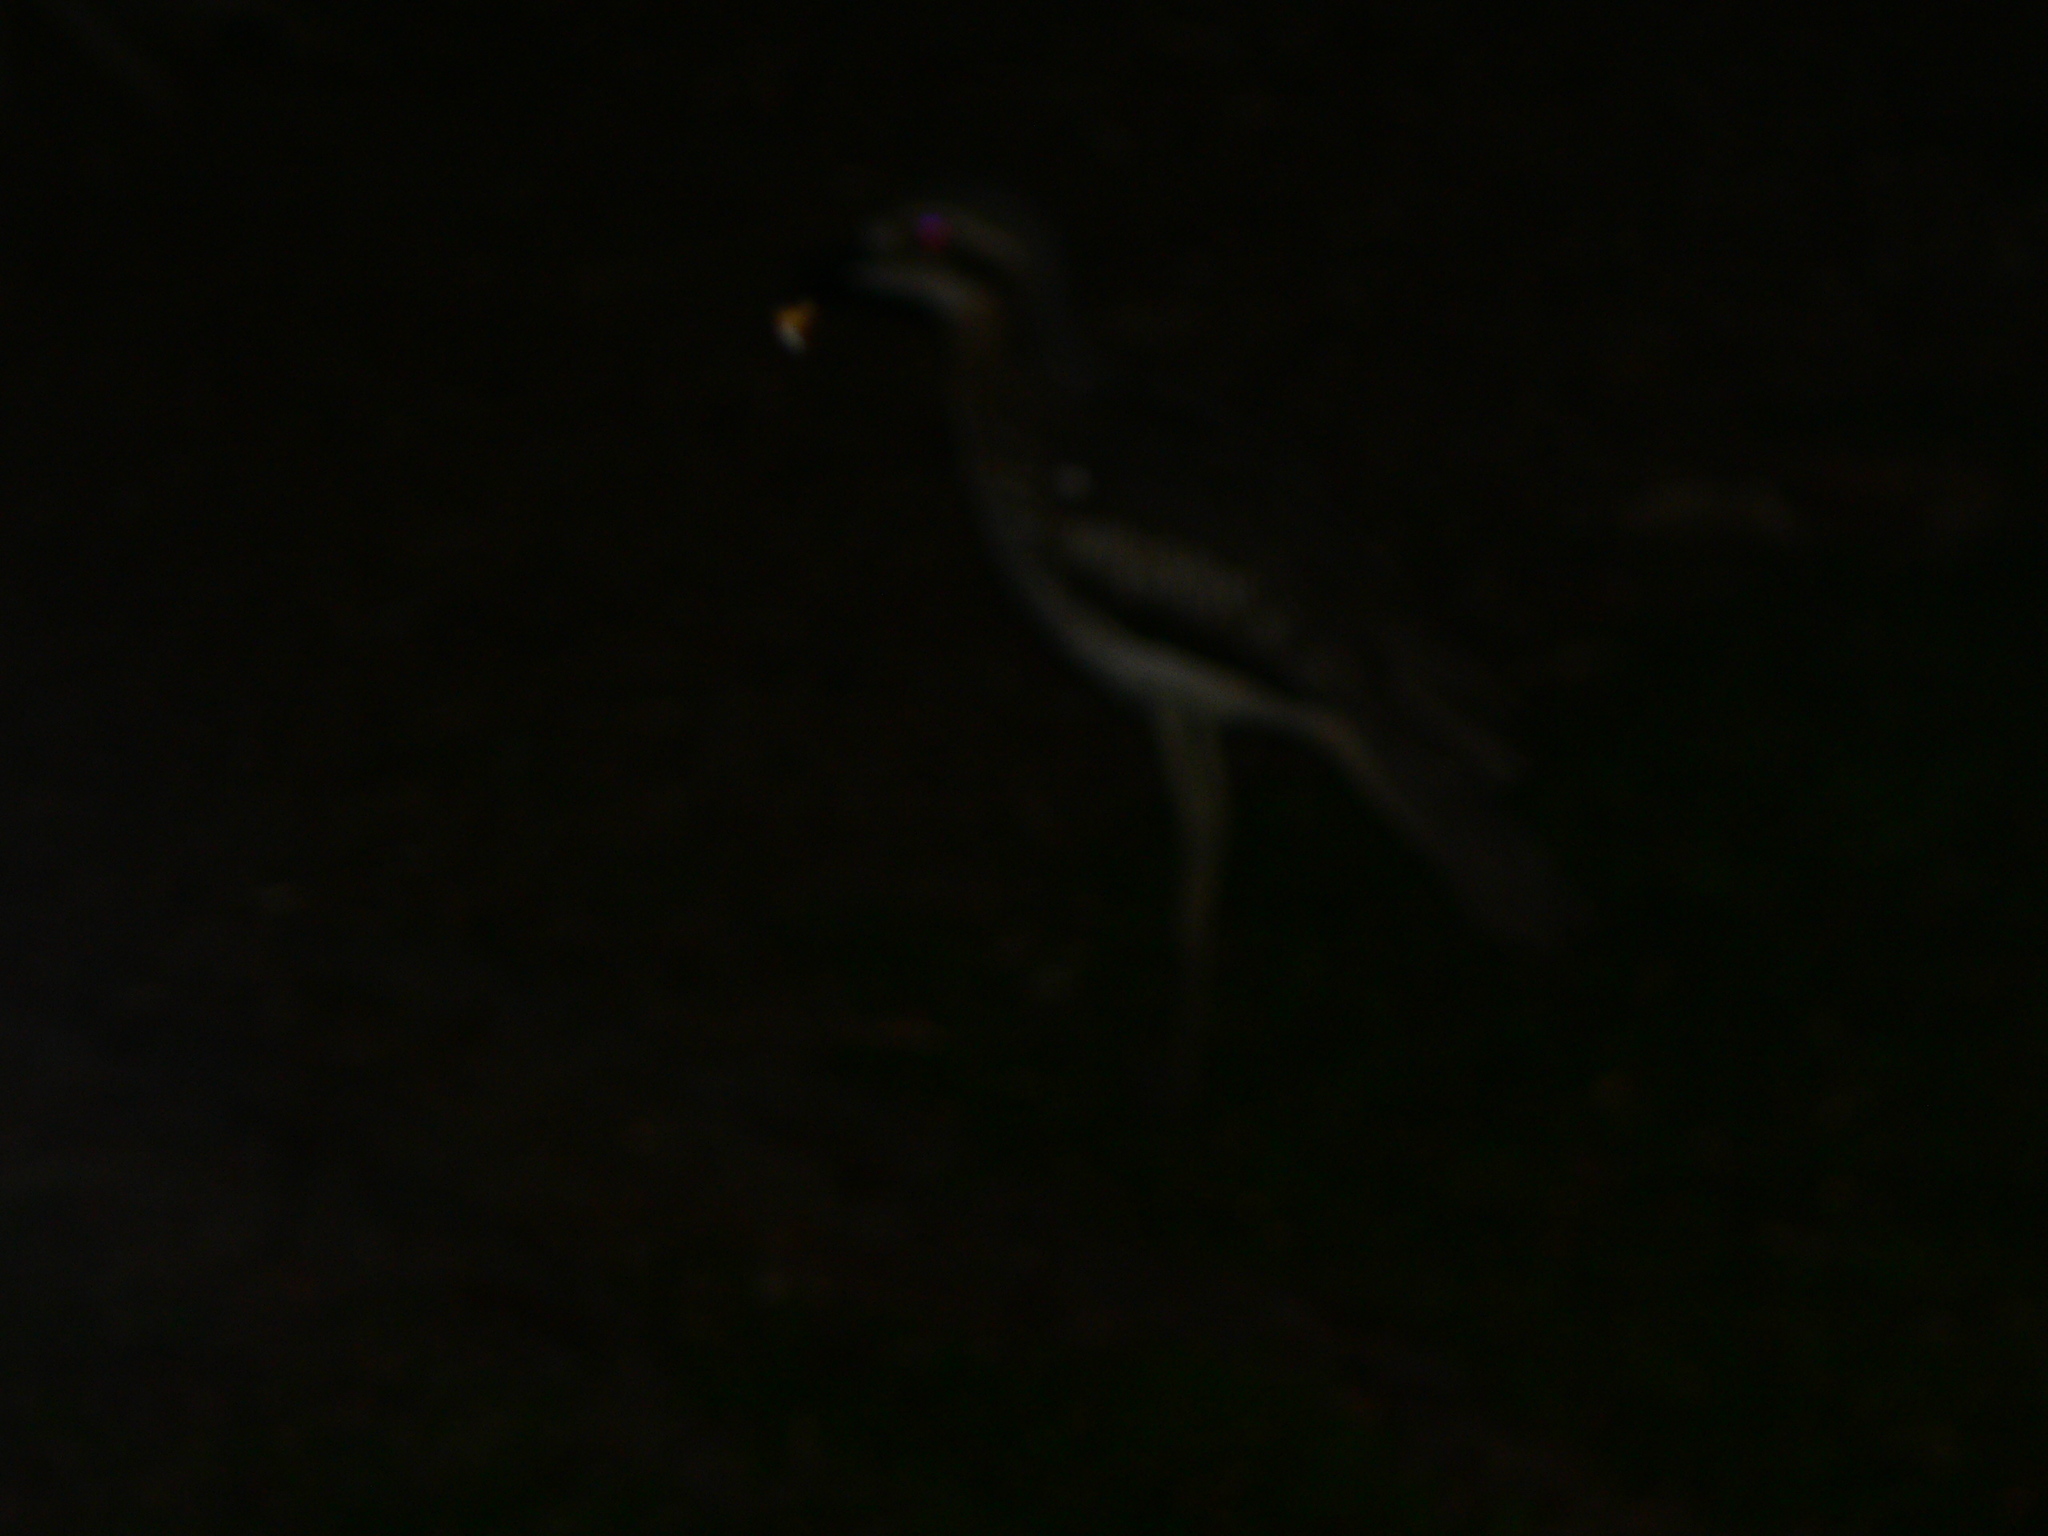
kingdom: Animalia
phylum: Chordata
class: Aves
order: Charadriiformes
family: Burhinidae
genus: Burhinus
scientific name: Burhinus grallarius
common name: Bush stone-curlew
